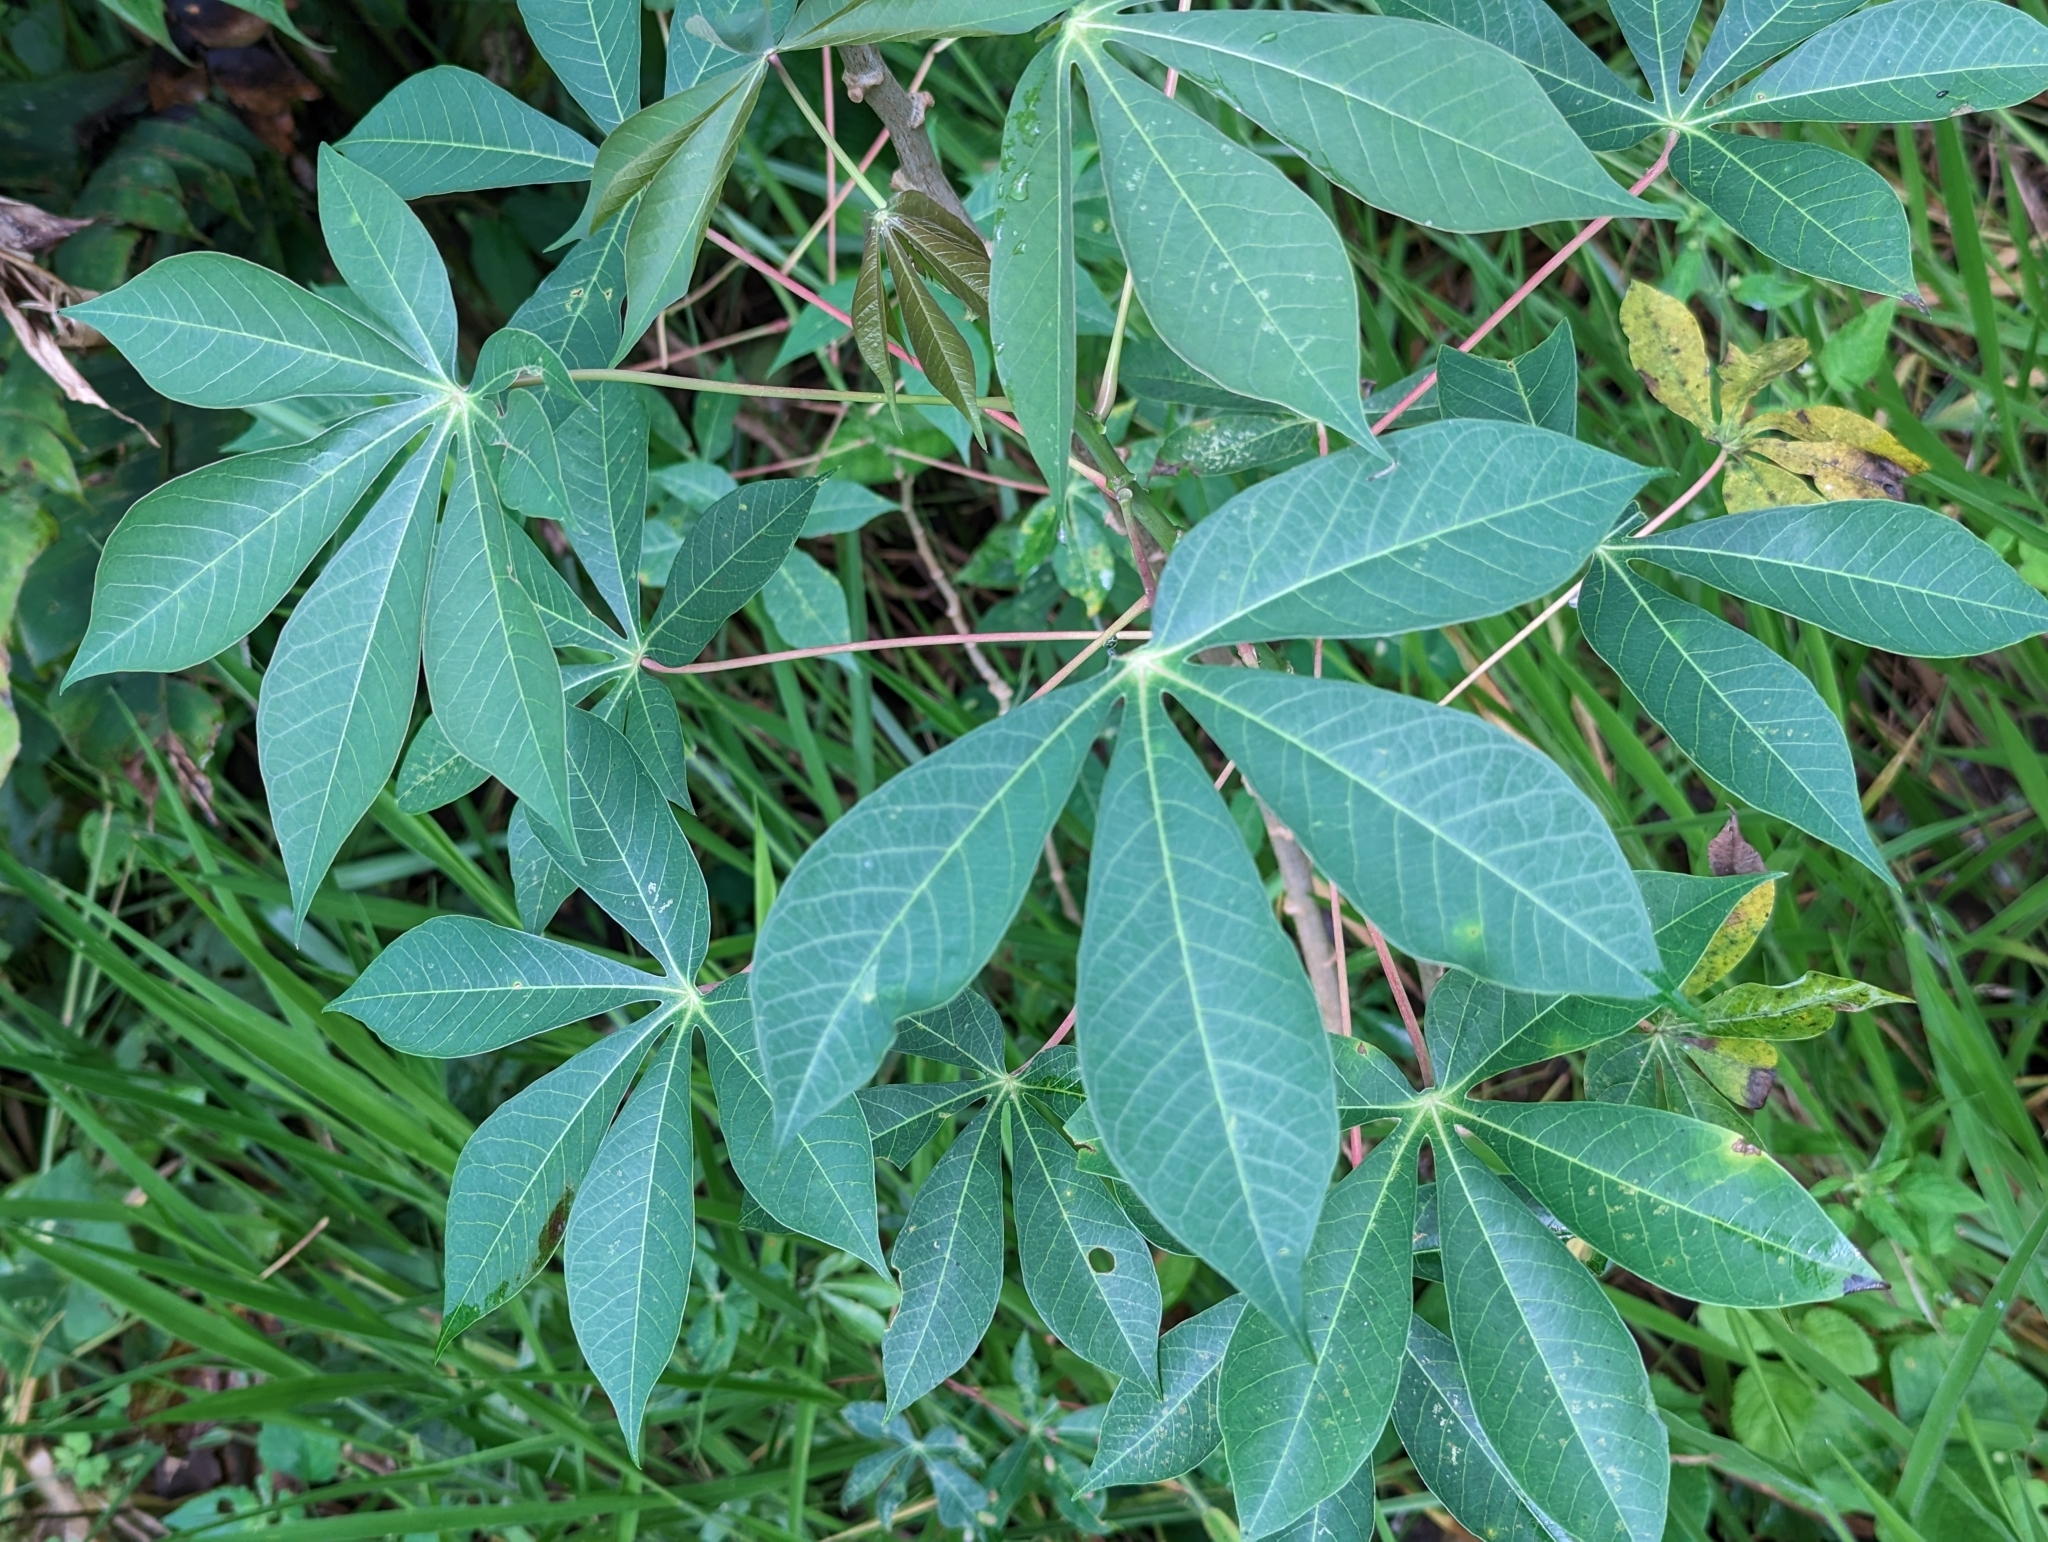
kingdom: Plantae
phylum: Tracheophyta
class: Magnoliopsida
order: Malpighiales
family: Euphorbiaceae
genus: Manihot
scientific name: Manihot esculenta
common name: Cassava
